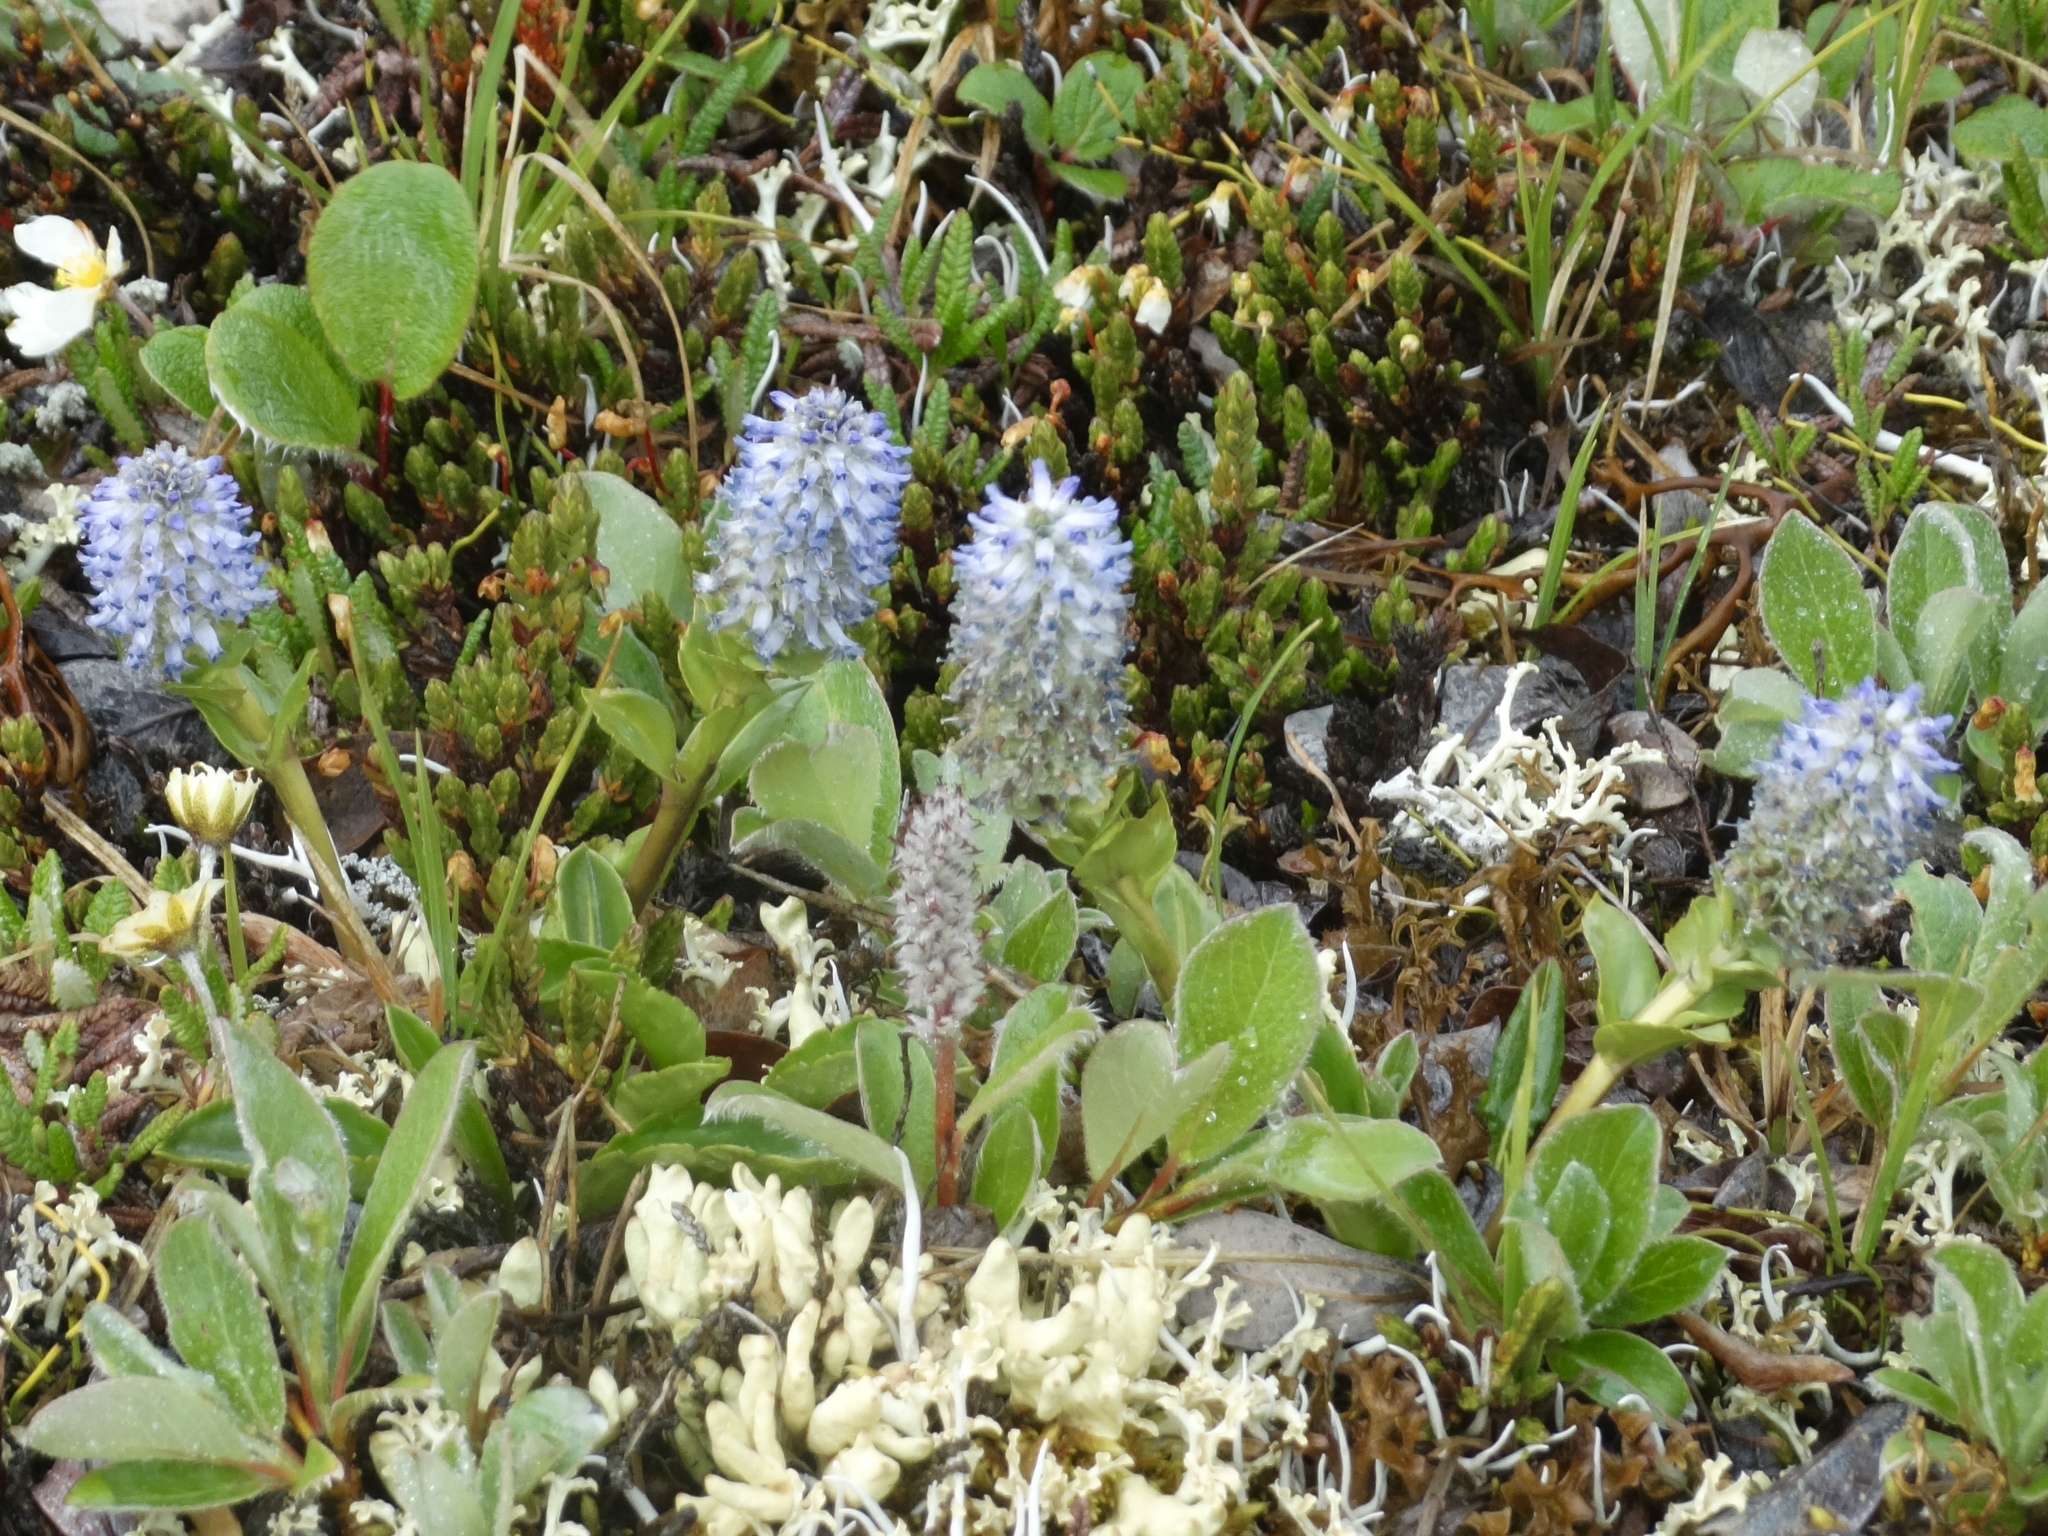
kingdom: Plantae
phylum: Tracheophyta
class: Magnoliopsida
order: Lamiales
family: Plantaginaceae
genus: Lagotis
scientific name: Lagotis glauca
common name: Glaucous weaselsnout
